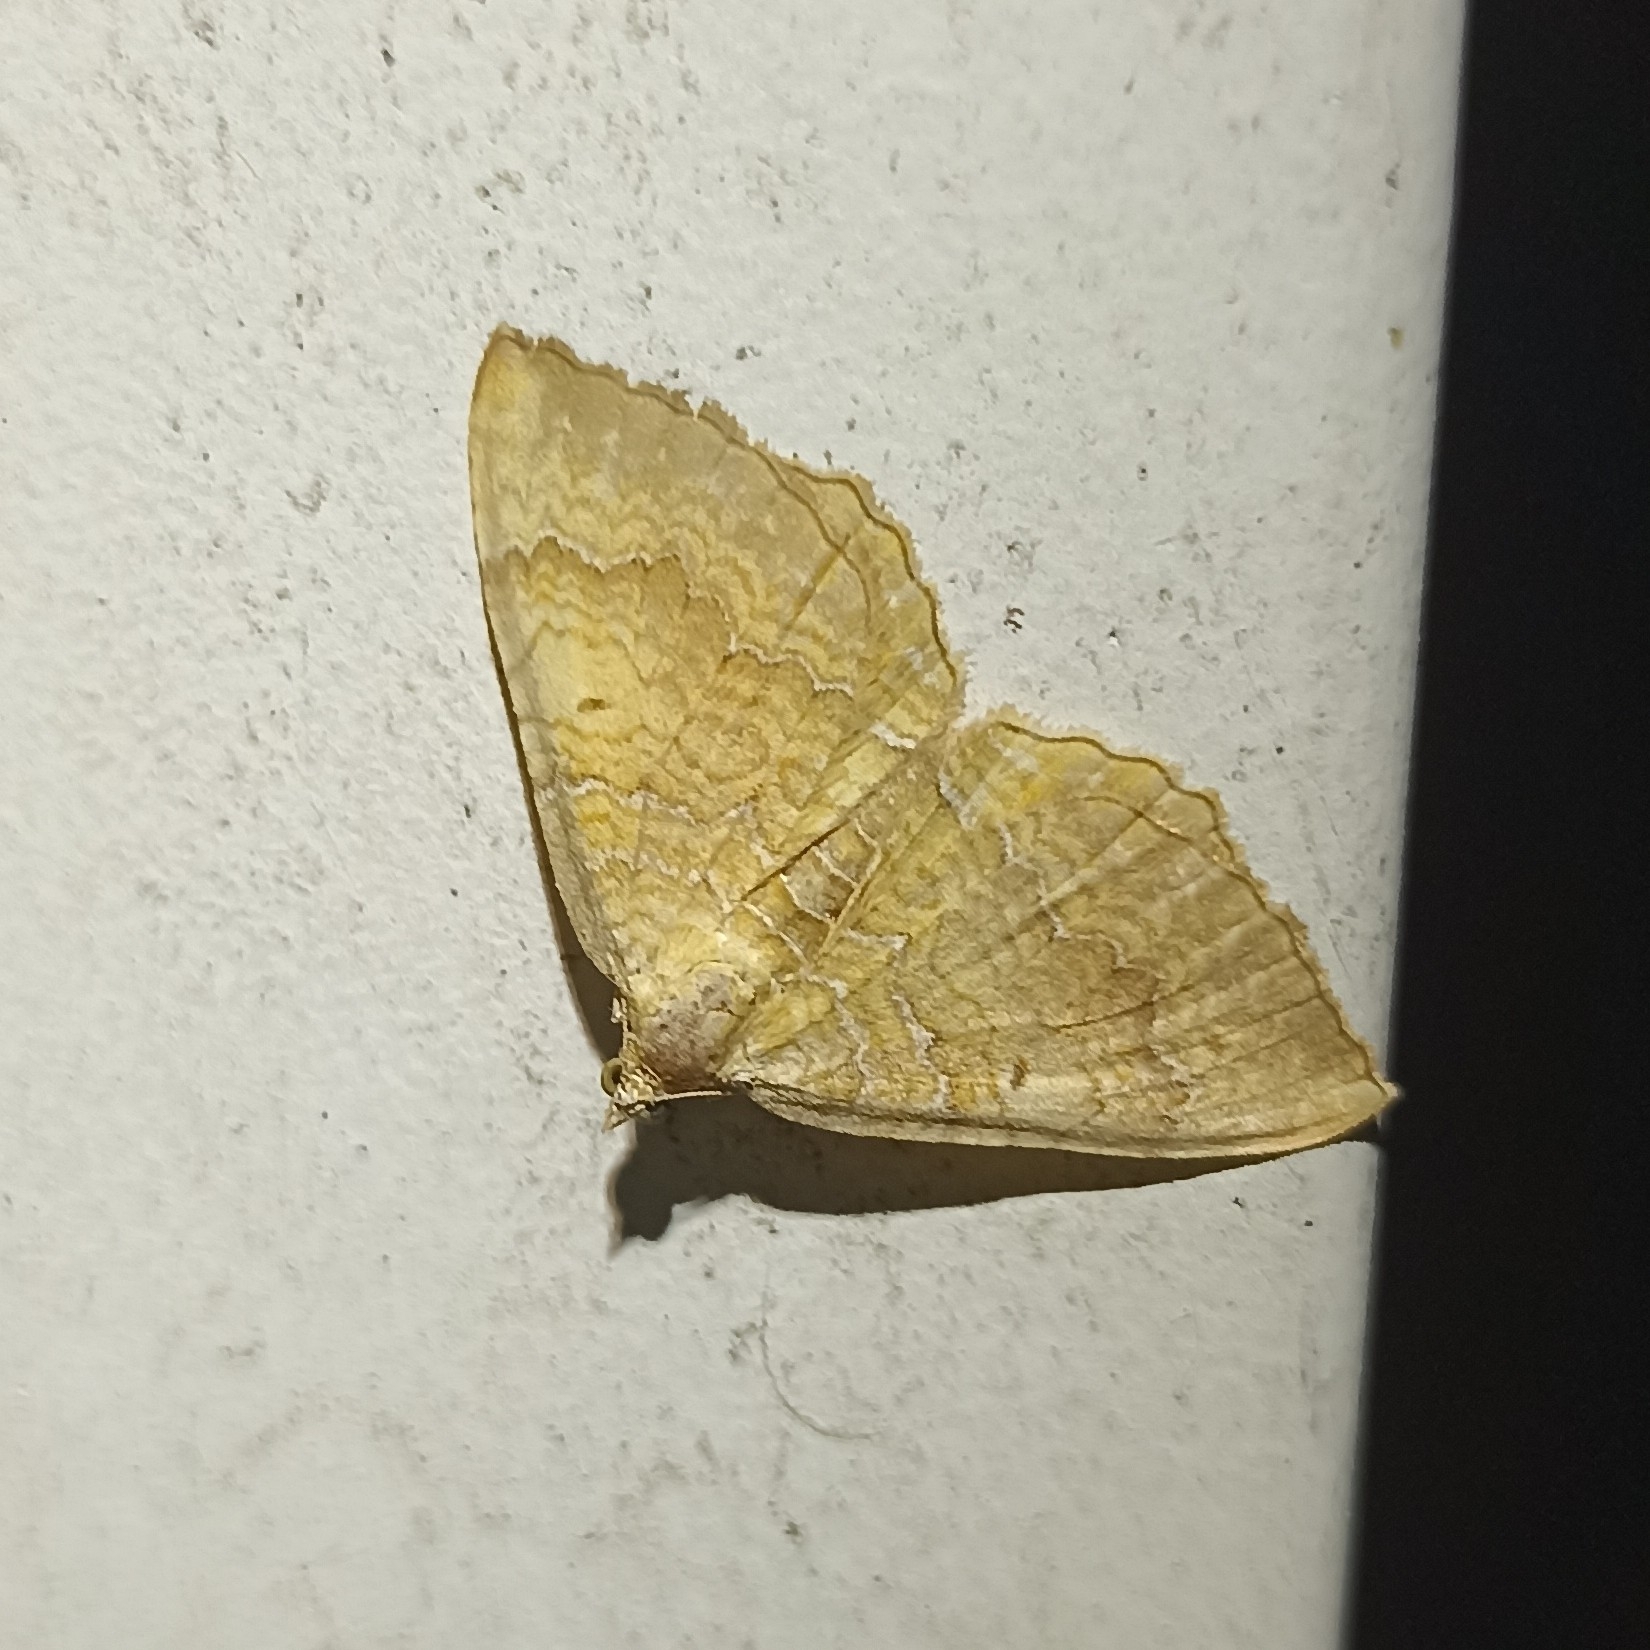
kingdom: Animalia
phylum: Arthropoda
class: Insecta
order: Lepidoptera
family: Geometridae
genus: Camptogramma
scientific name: Camptogramma bilineata
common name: Yellow shell
